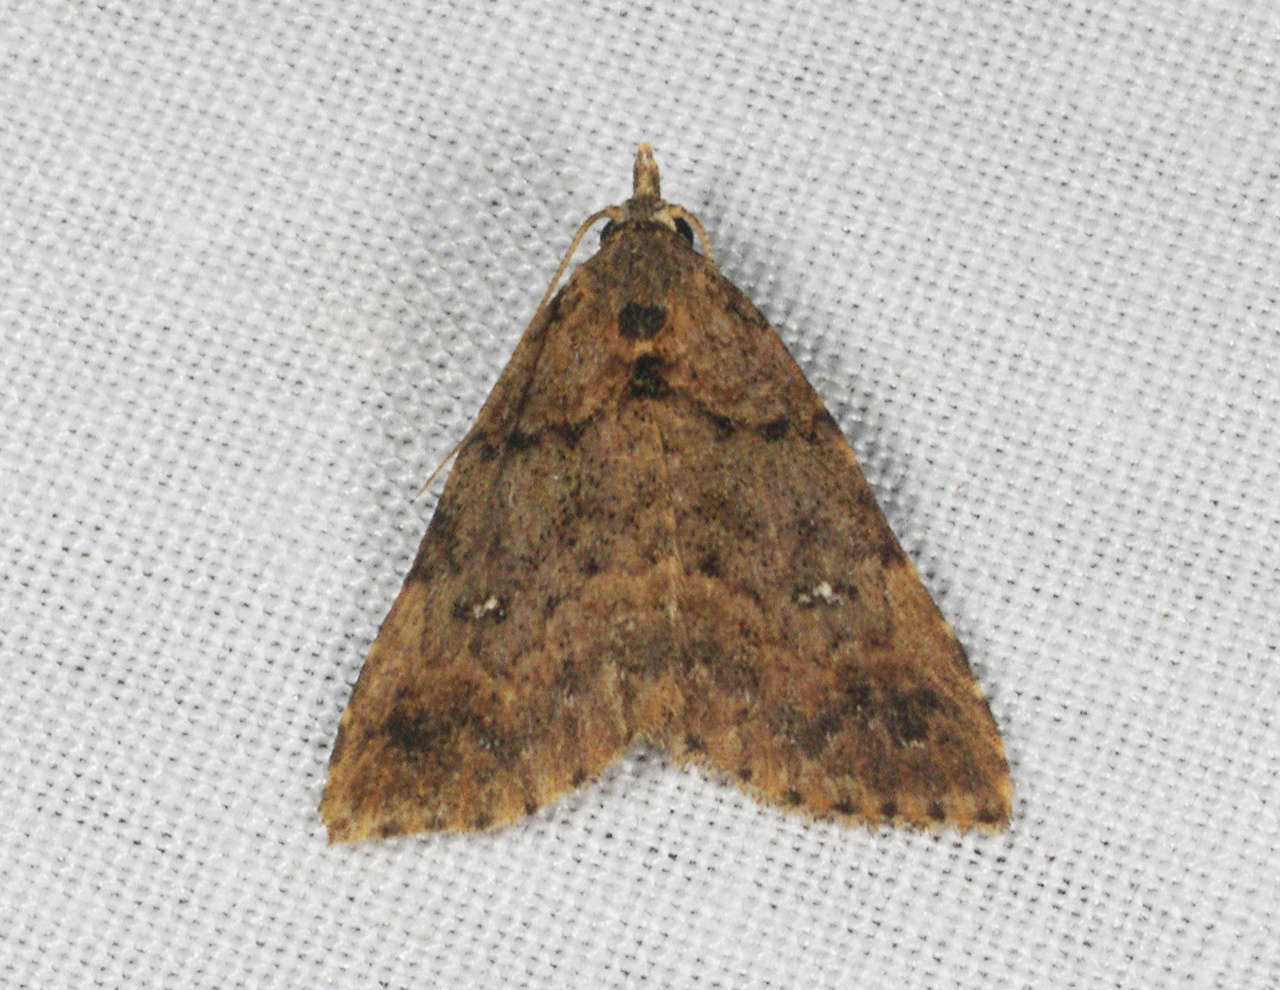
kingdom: Animalia
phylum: Arthropoda
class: Insecta
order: Lepidoptera
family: Erebidae
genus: Alapadna
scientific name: Alapadna pauropis
